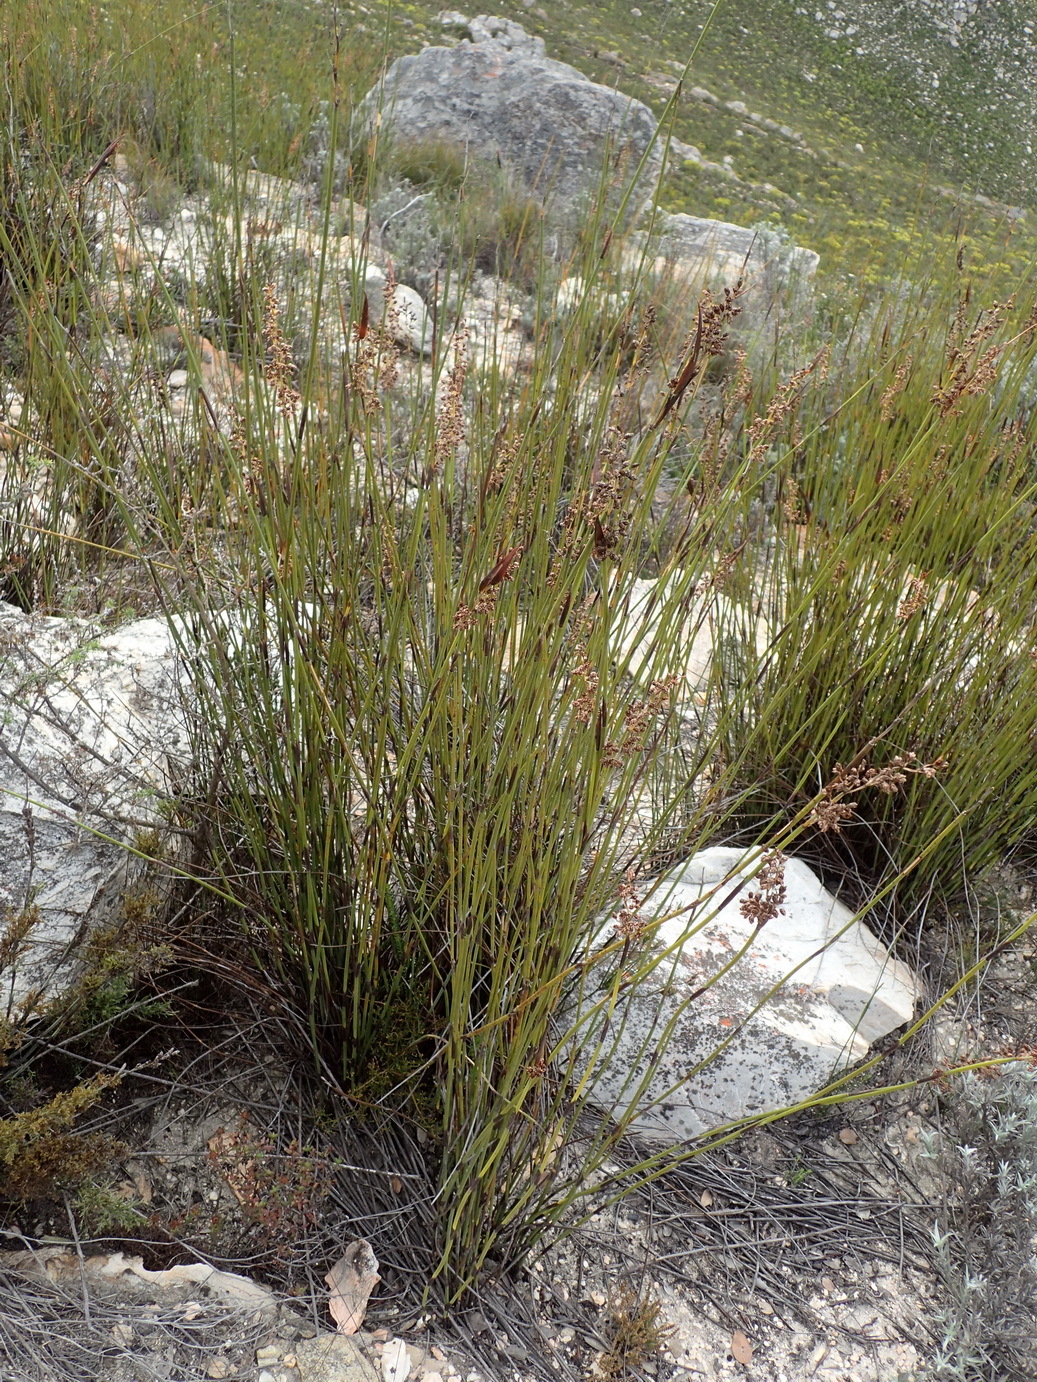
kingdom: Plantae
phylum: Tracheophyta
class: Liliopsida
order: Poales
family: Restionaceae
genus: Cannomois
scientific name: Cannomois scirpoides
